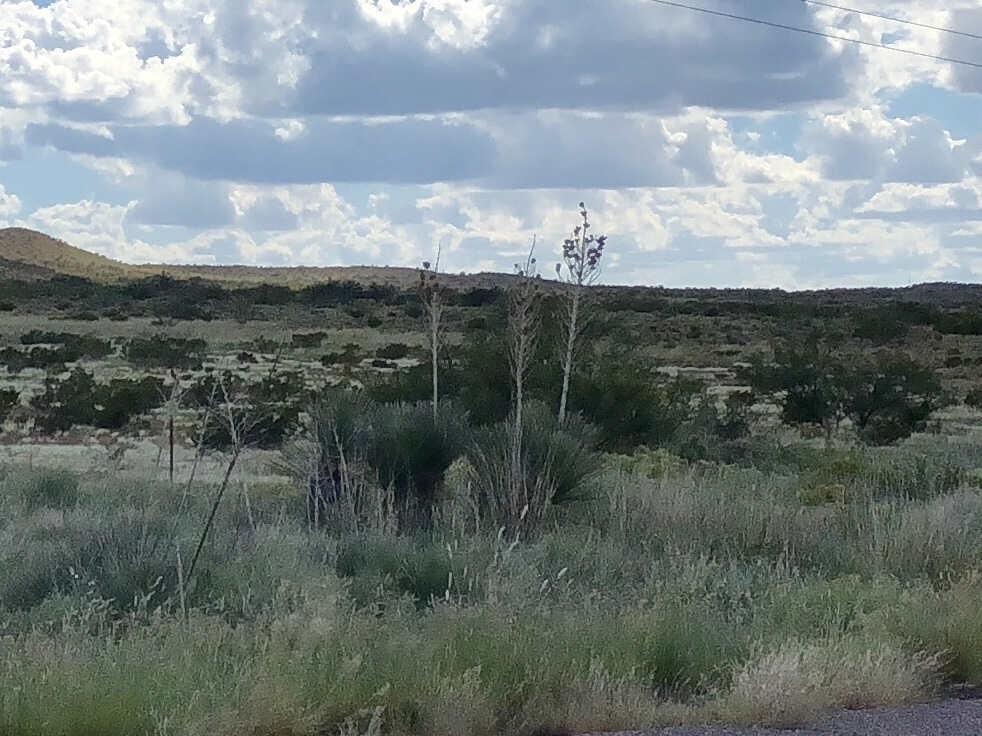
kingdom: Plantae
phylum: Tracheophyta
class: Liliopsida
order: Asparagales
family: Asparagaceae
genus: Yucca
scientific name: Yucca elata
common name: Palmella
